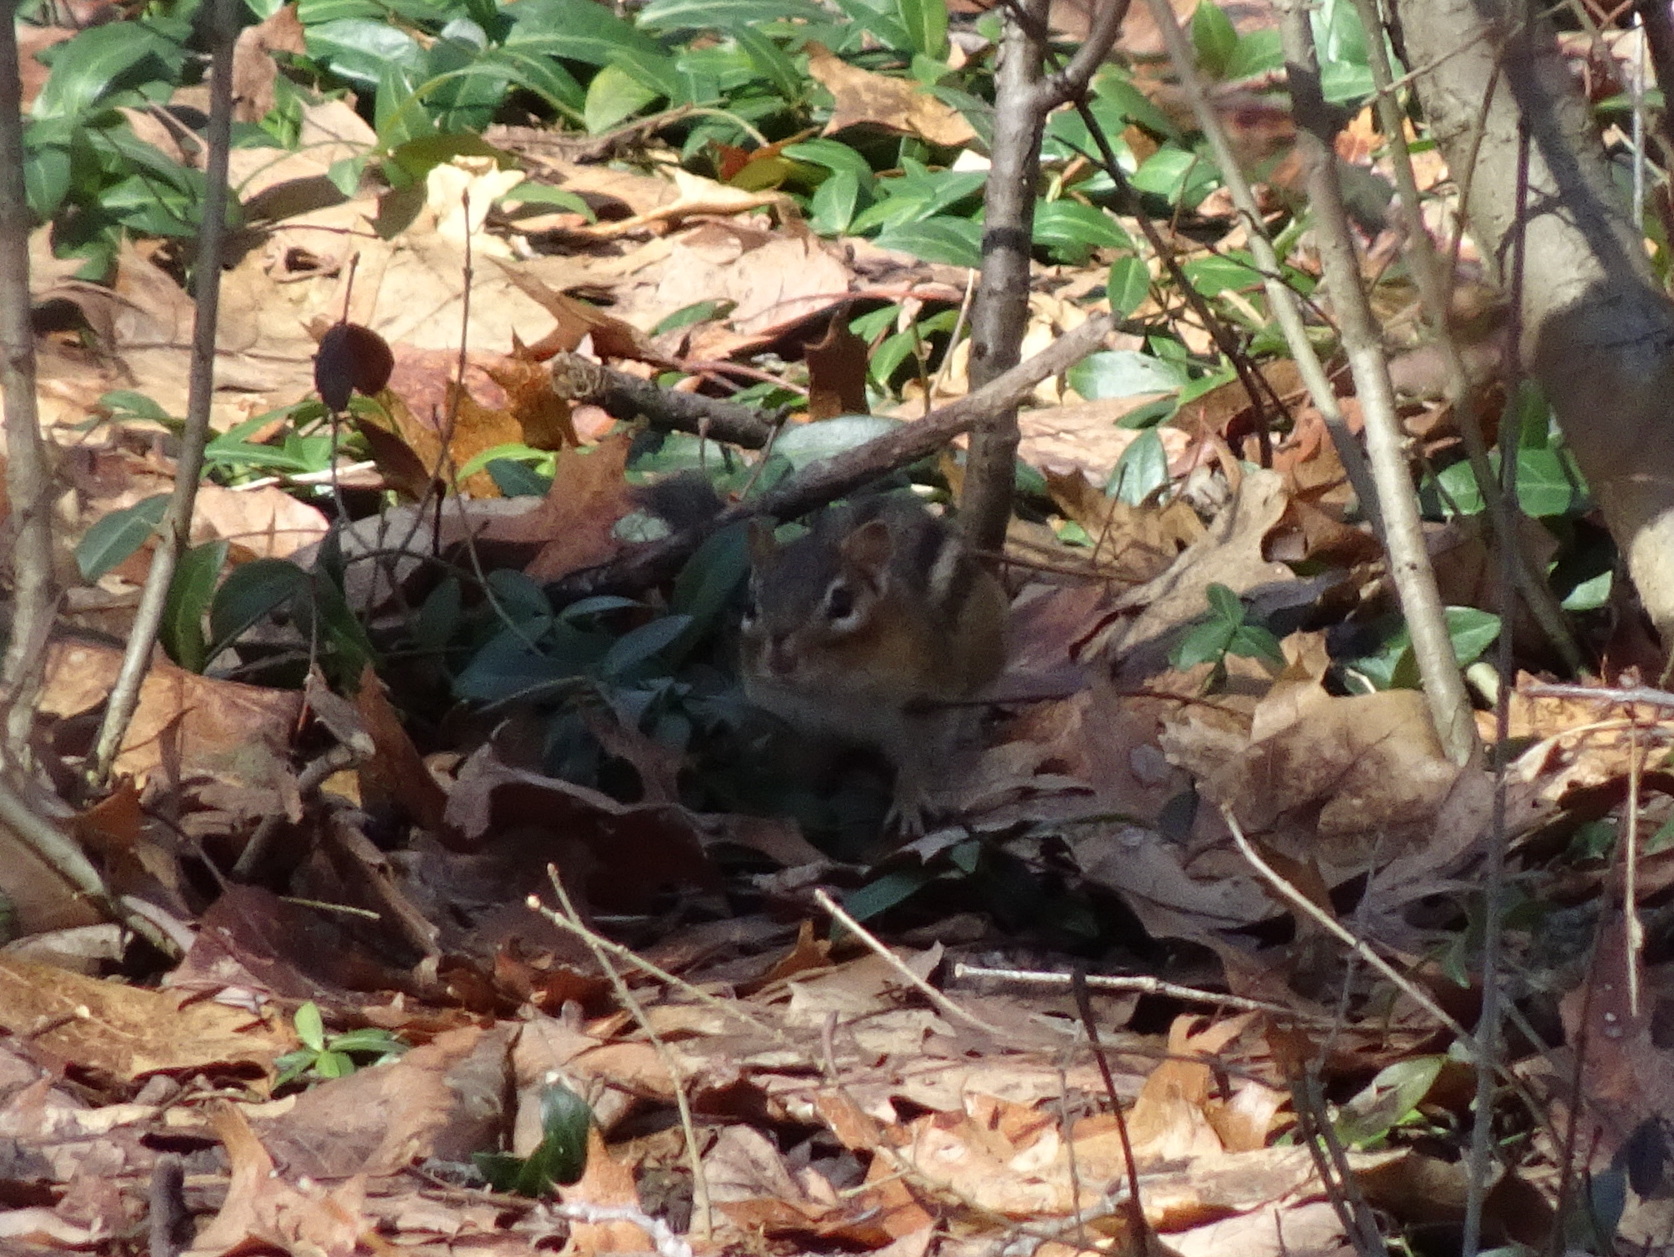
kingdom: Animalia
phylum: Chordata
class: Mammalia
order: Rodentia
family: Sciuridae
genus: Tamias
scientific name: Tamias striatus
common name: Eastern chipmunk
